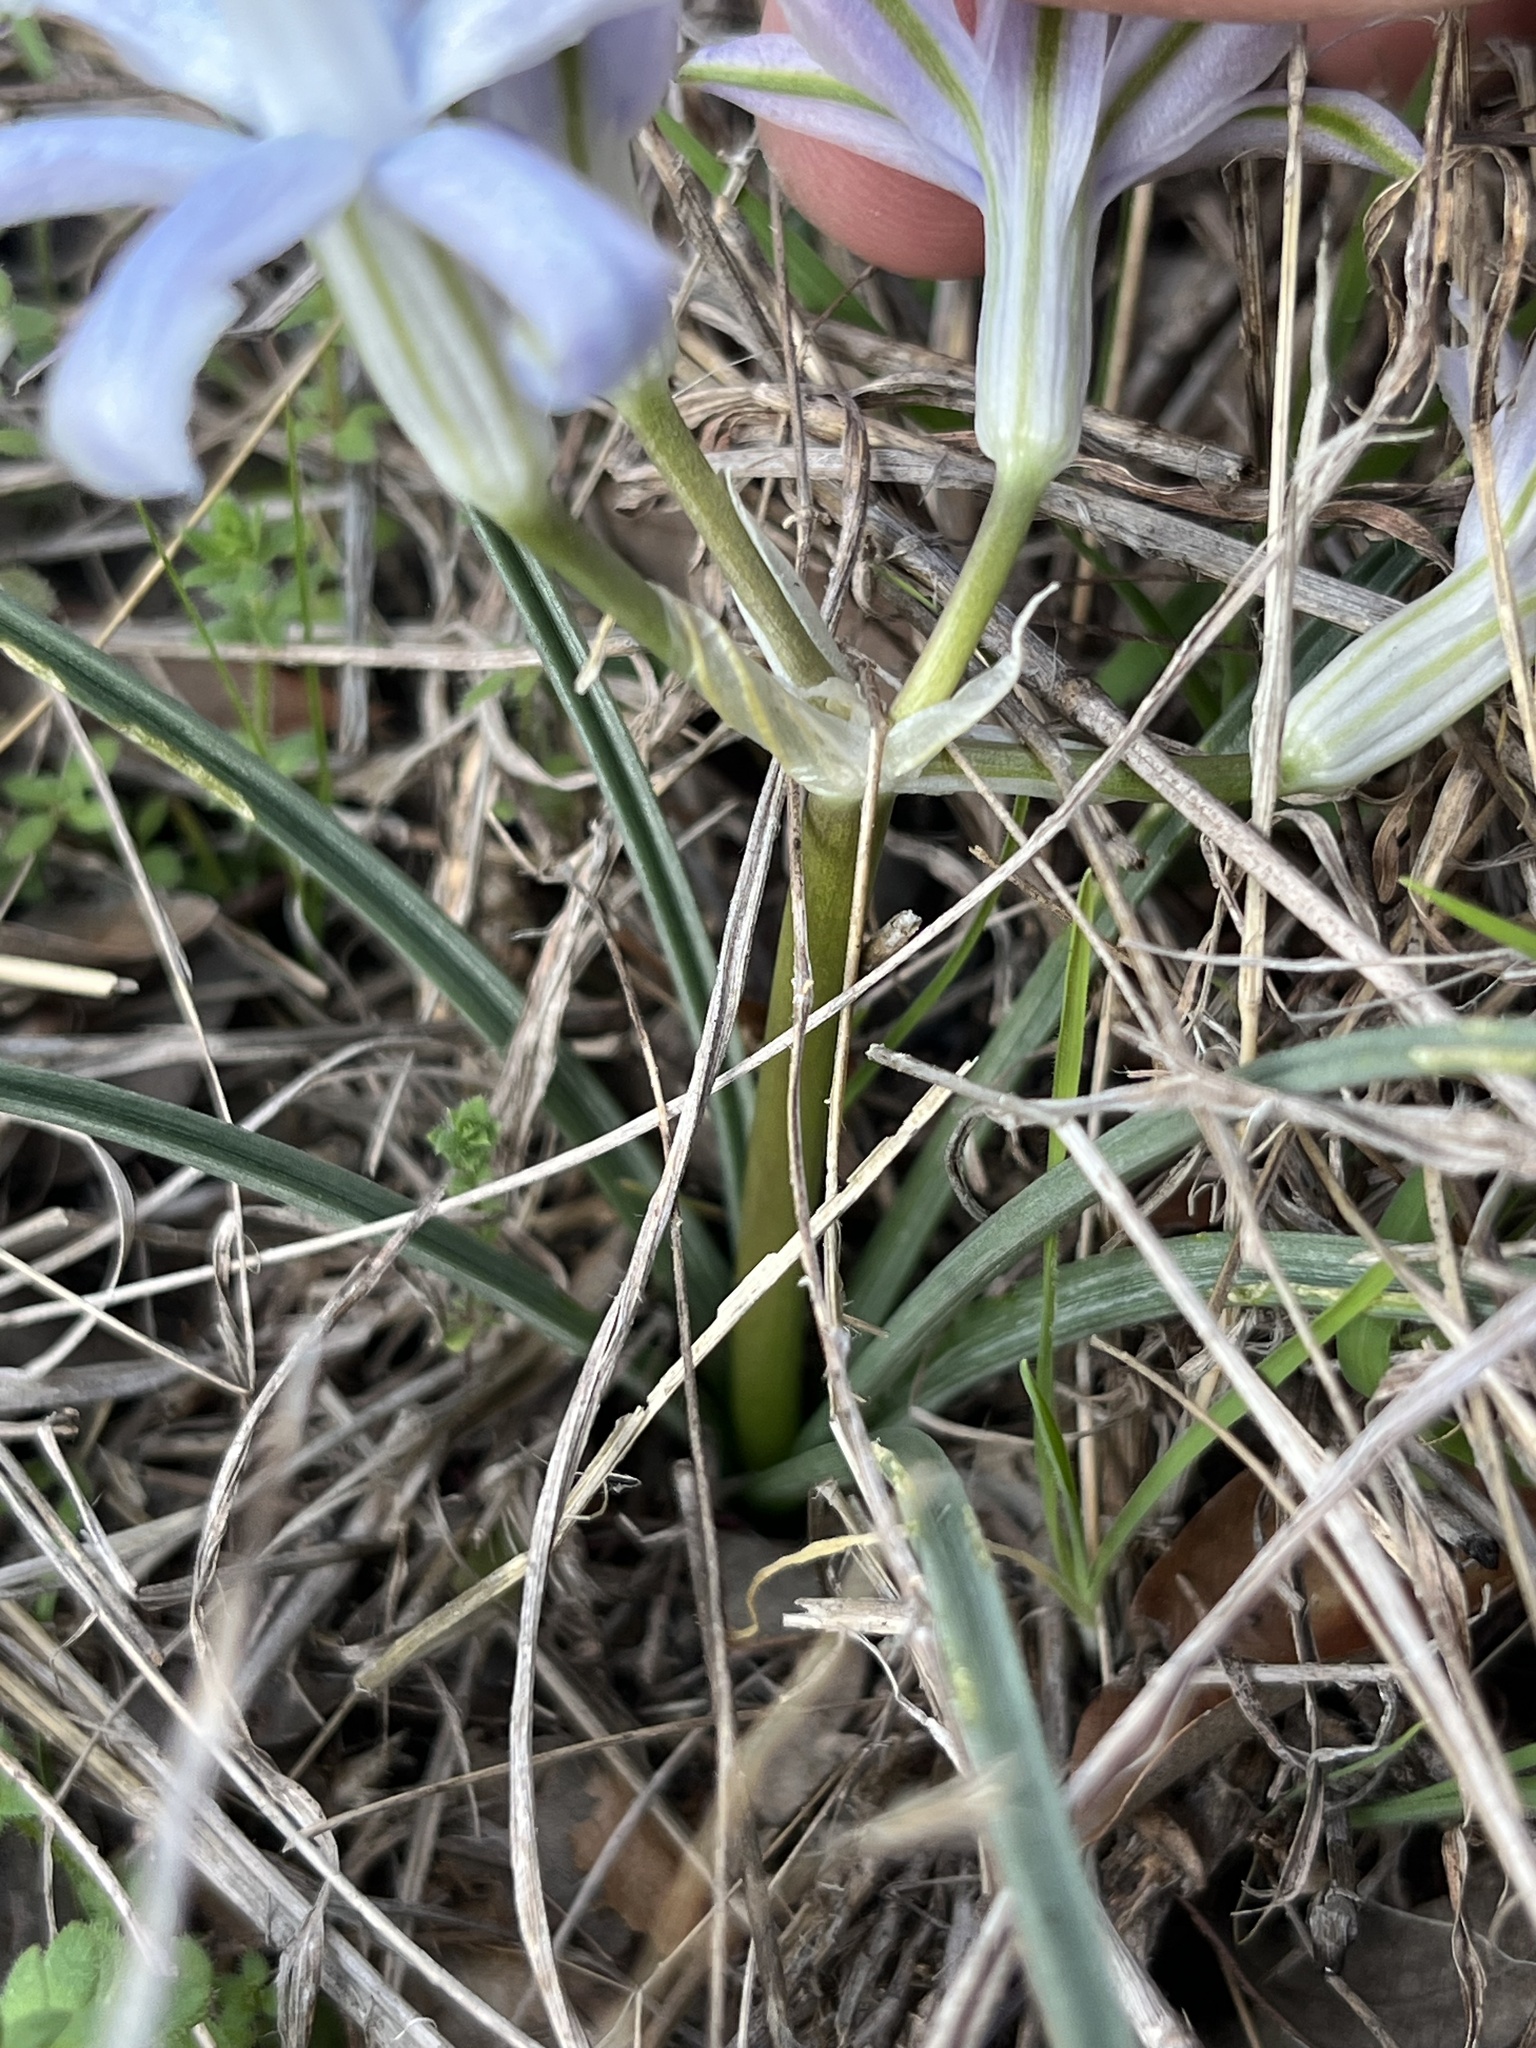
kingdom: Plantae
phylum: Tracheophyta
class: Liliopsida
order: Asparagales
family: Asparagaceae
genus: Androstephium
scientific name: Androstephium coeruleum
